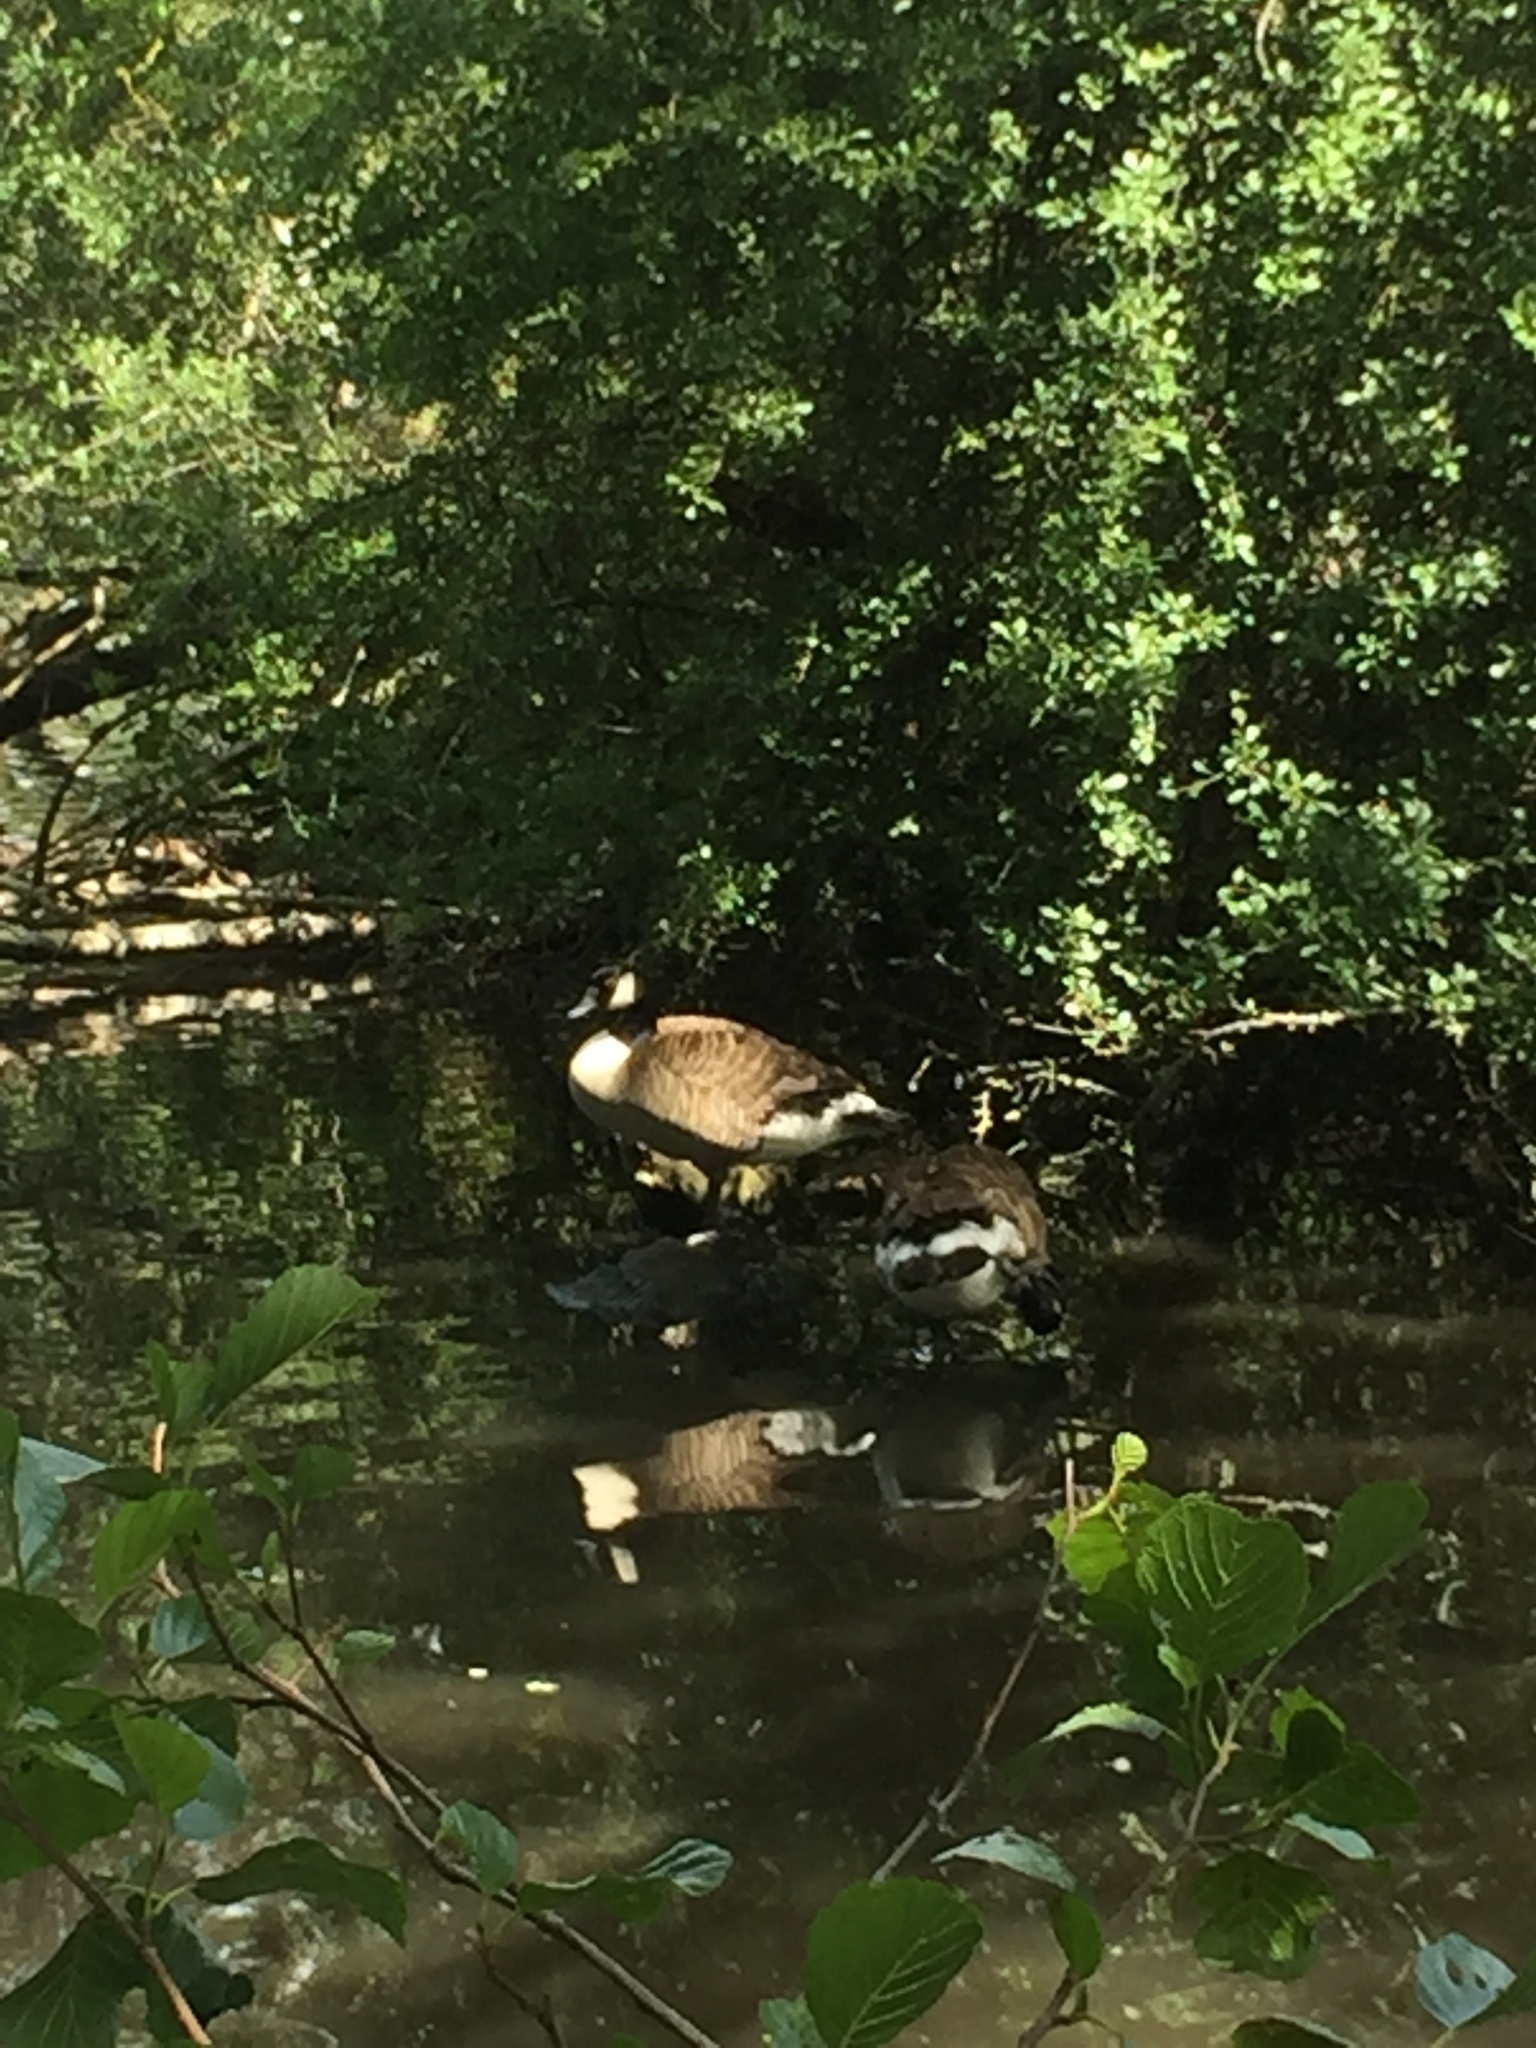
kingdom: Animalia
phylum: Chordata
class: Aves
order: Anseriformes
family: Anatidae
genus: Branta
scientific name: Branta canadensis
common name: Canada goose
